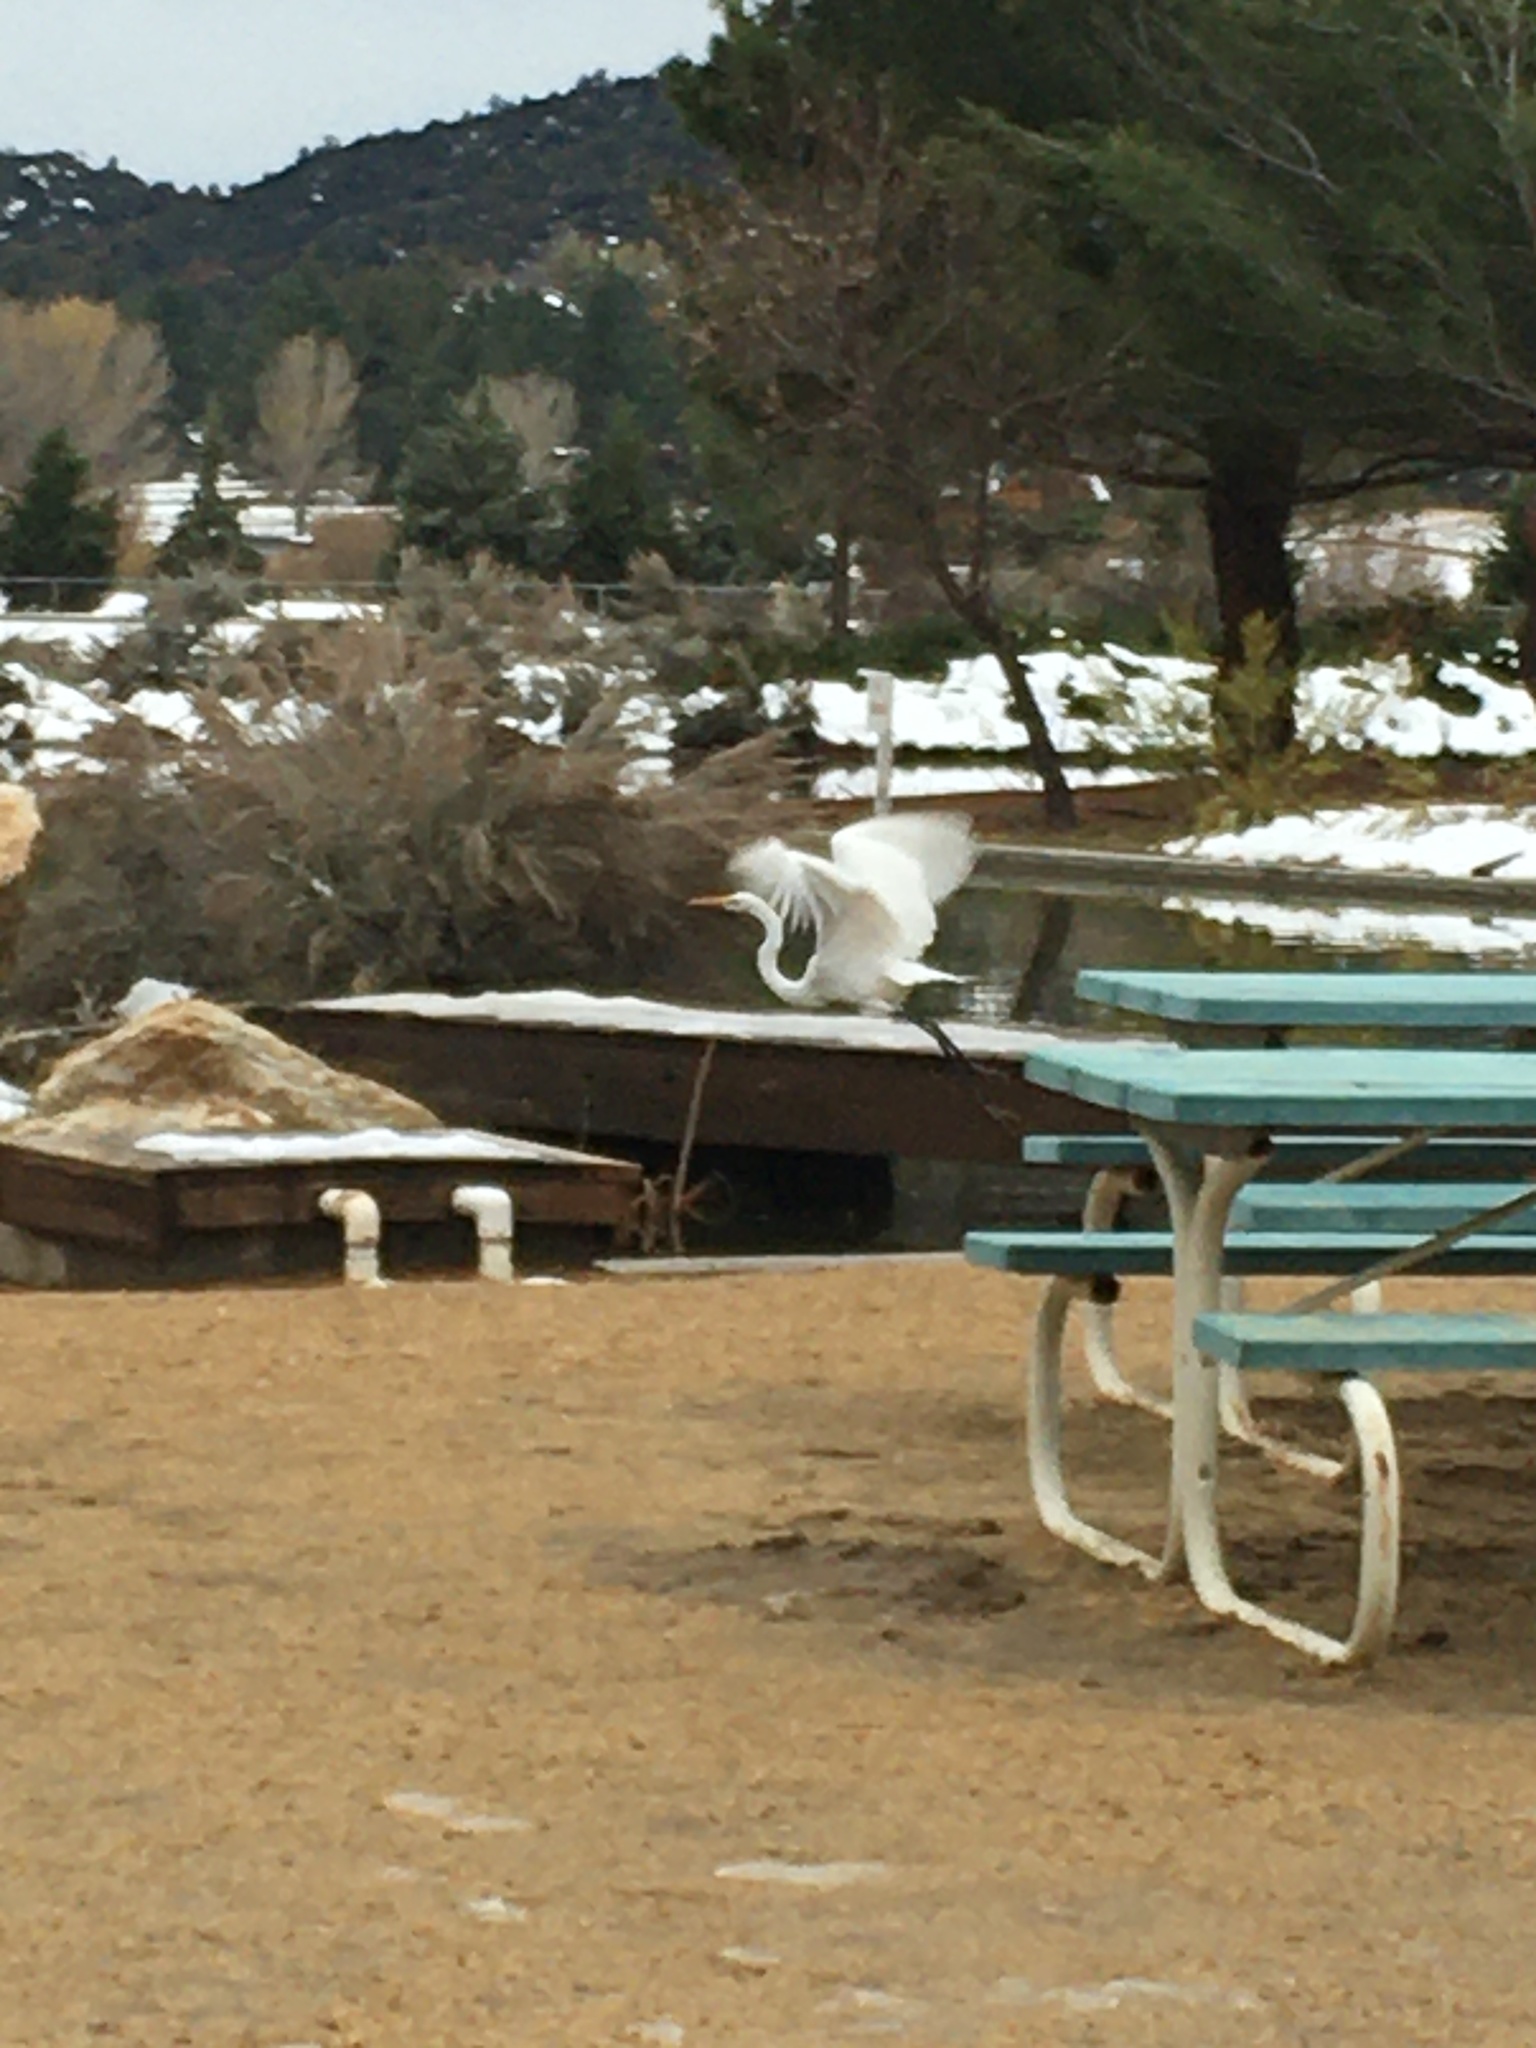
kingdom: Animalia
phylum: Chordata
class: Aves
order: Pelecaniformes
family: Ardeidae
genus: Ardea
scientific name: Ardea alba
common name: Great egret
